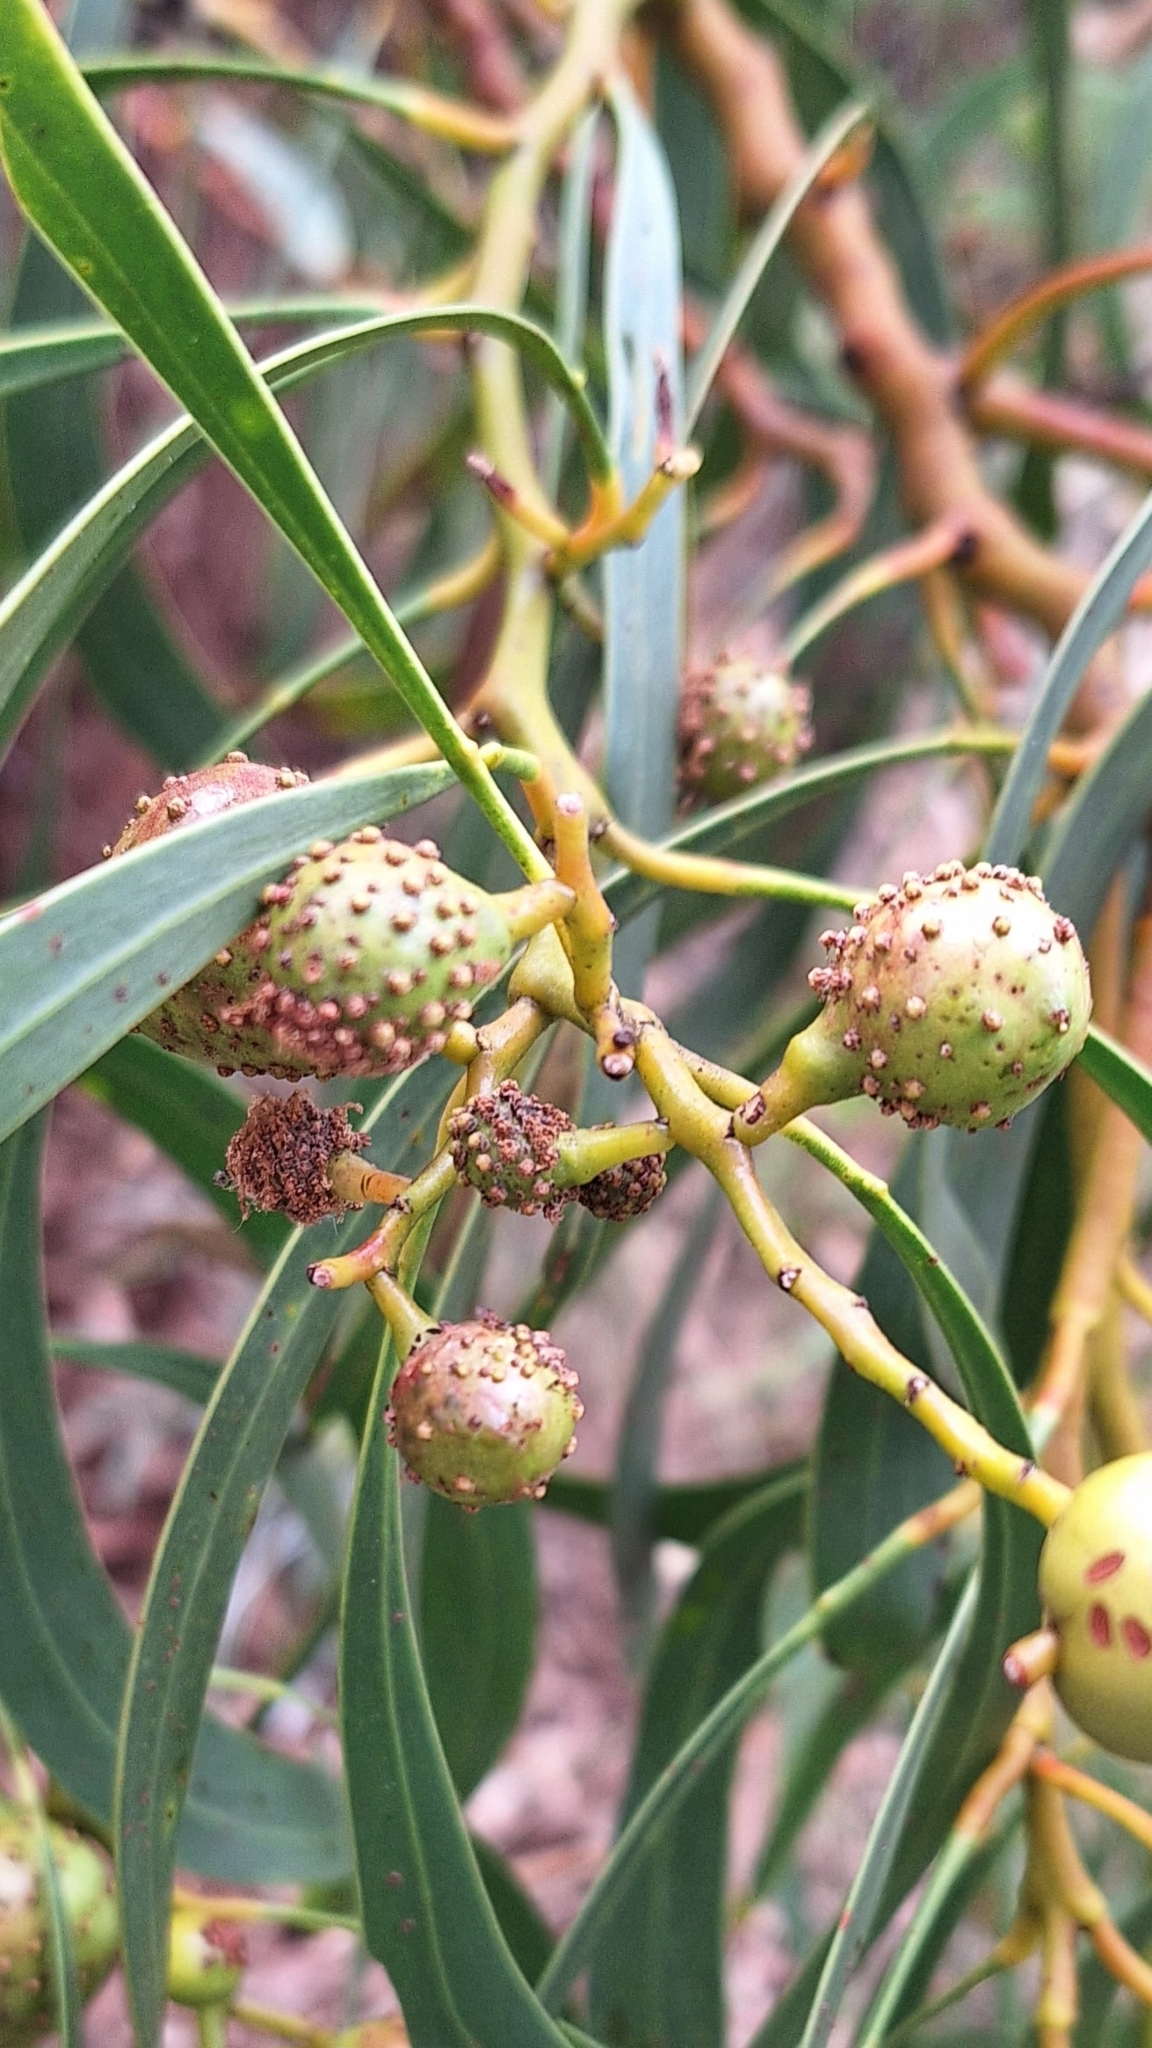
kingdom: Animalia
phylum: Arthropoda
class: Insecta
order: Hymenoptera
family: Pteromalidae
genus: Trichilogaster
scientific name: Trichilogaster signiventris
